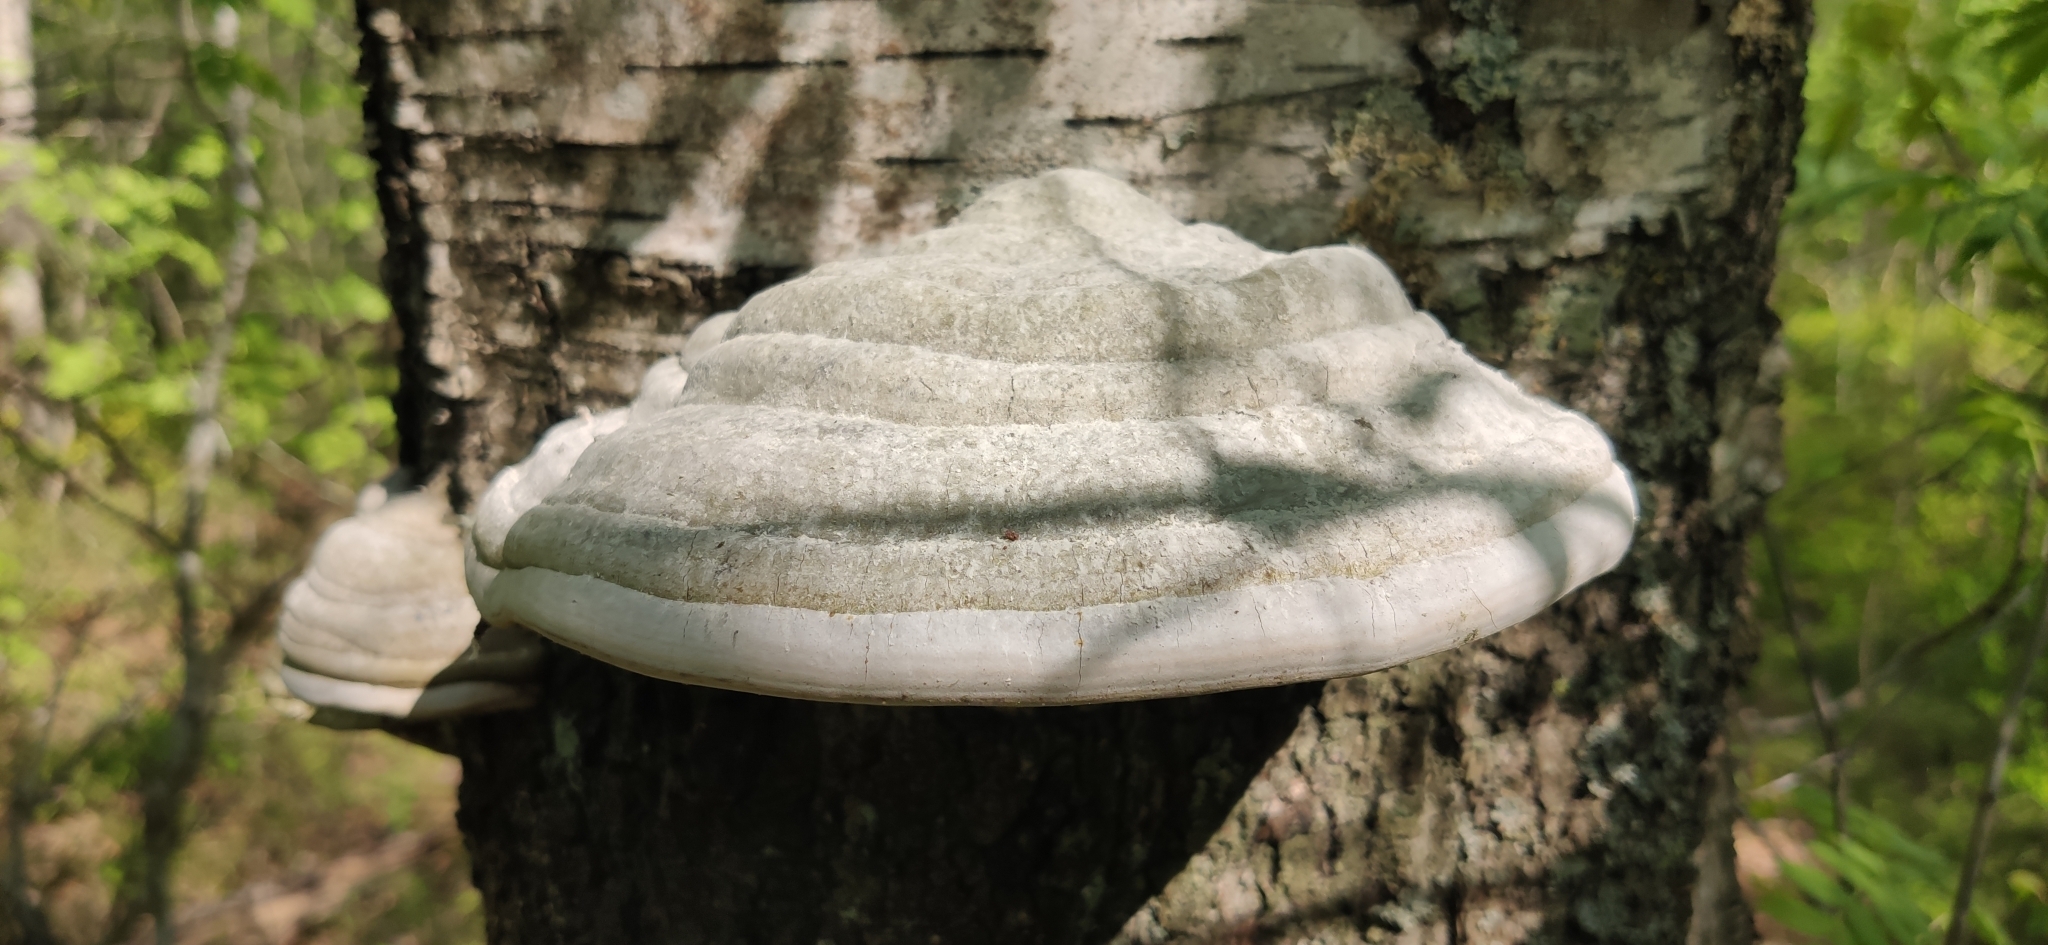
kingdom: Fungi
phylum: Basidiomycota
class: Agaricomycetes
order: Polyporales
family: Polyporaceae
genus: Fomes
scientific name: Fomes fomentarius
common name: Hoof fungus
